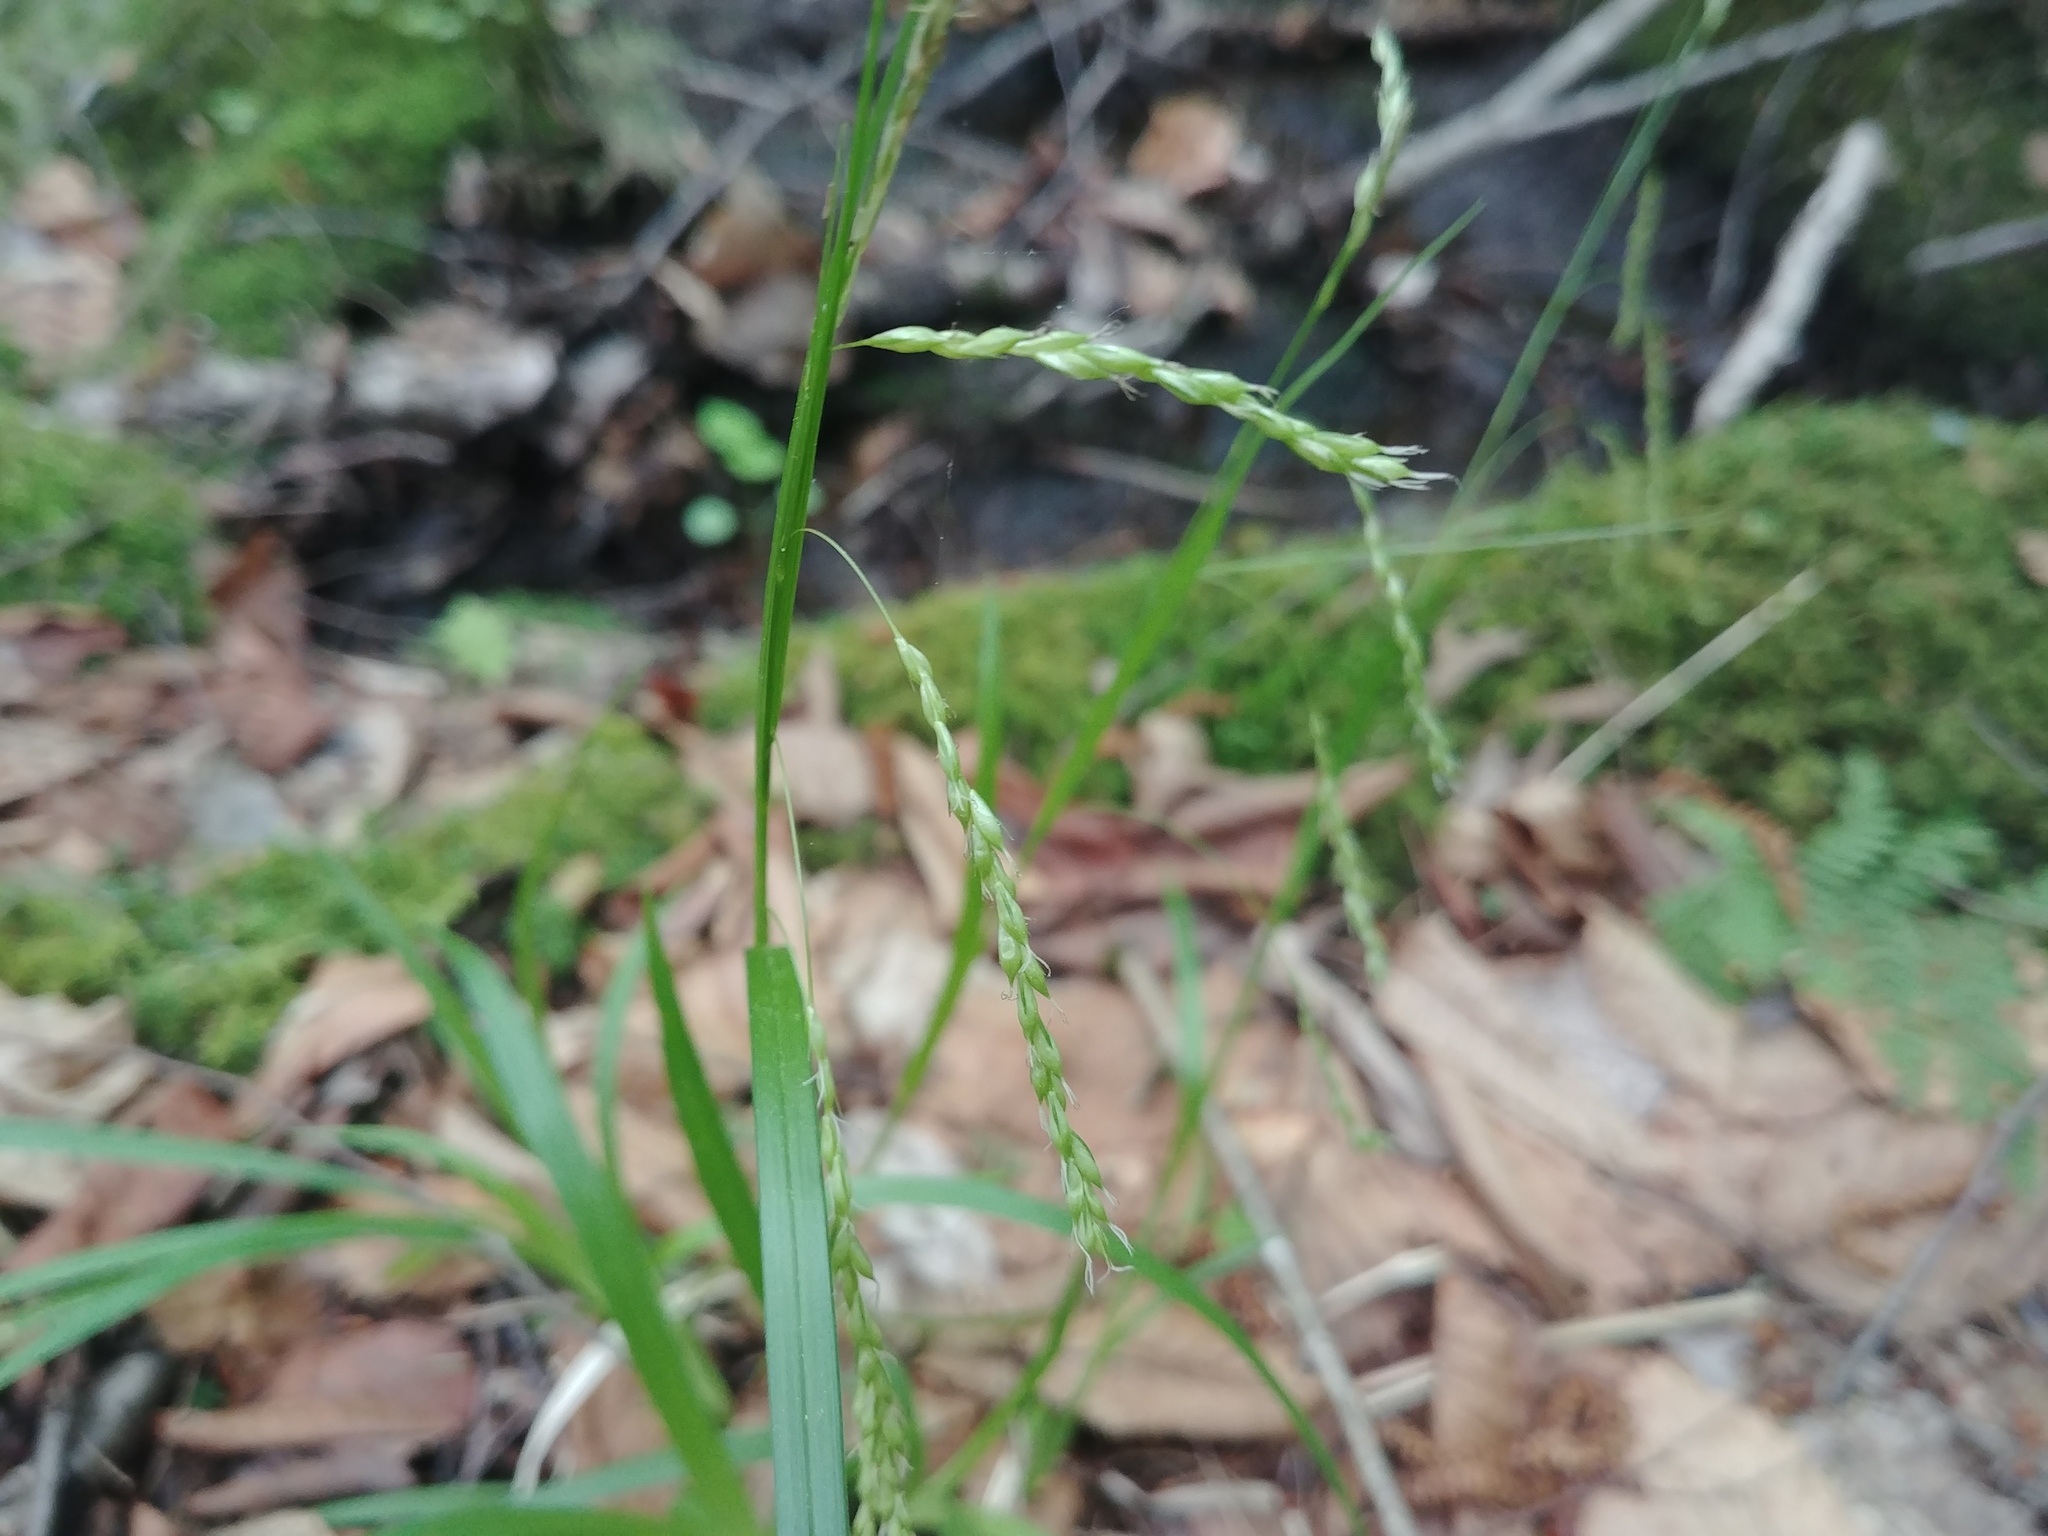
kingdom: Plantae
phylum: Tracheophyta
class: Liliopsida
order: Poales
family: Cyperaceae
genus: Carex
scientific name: Carex debilis
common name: White-edge sedge
